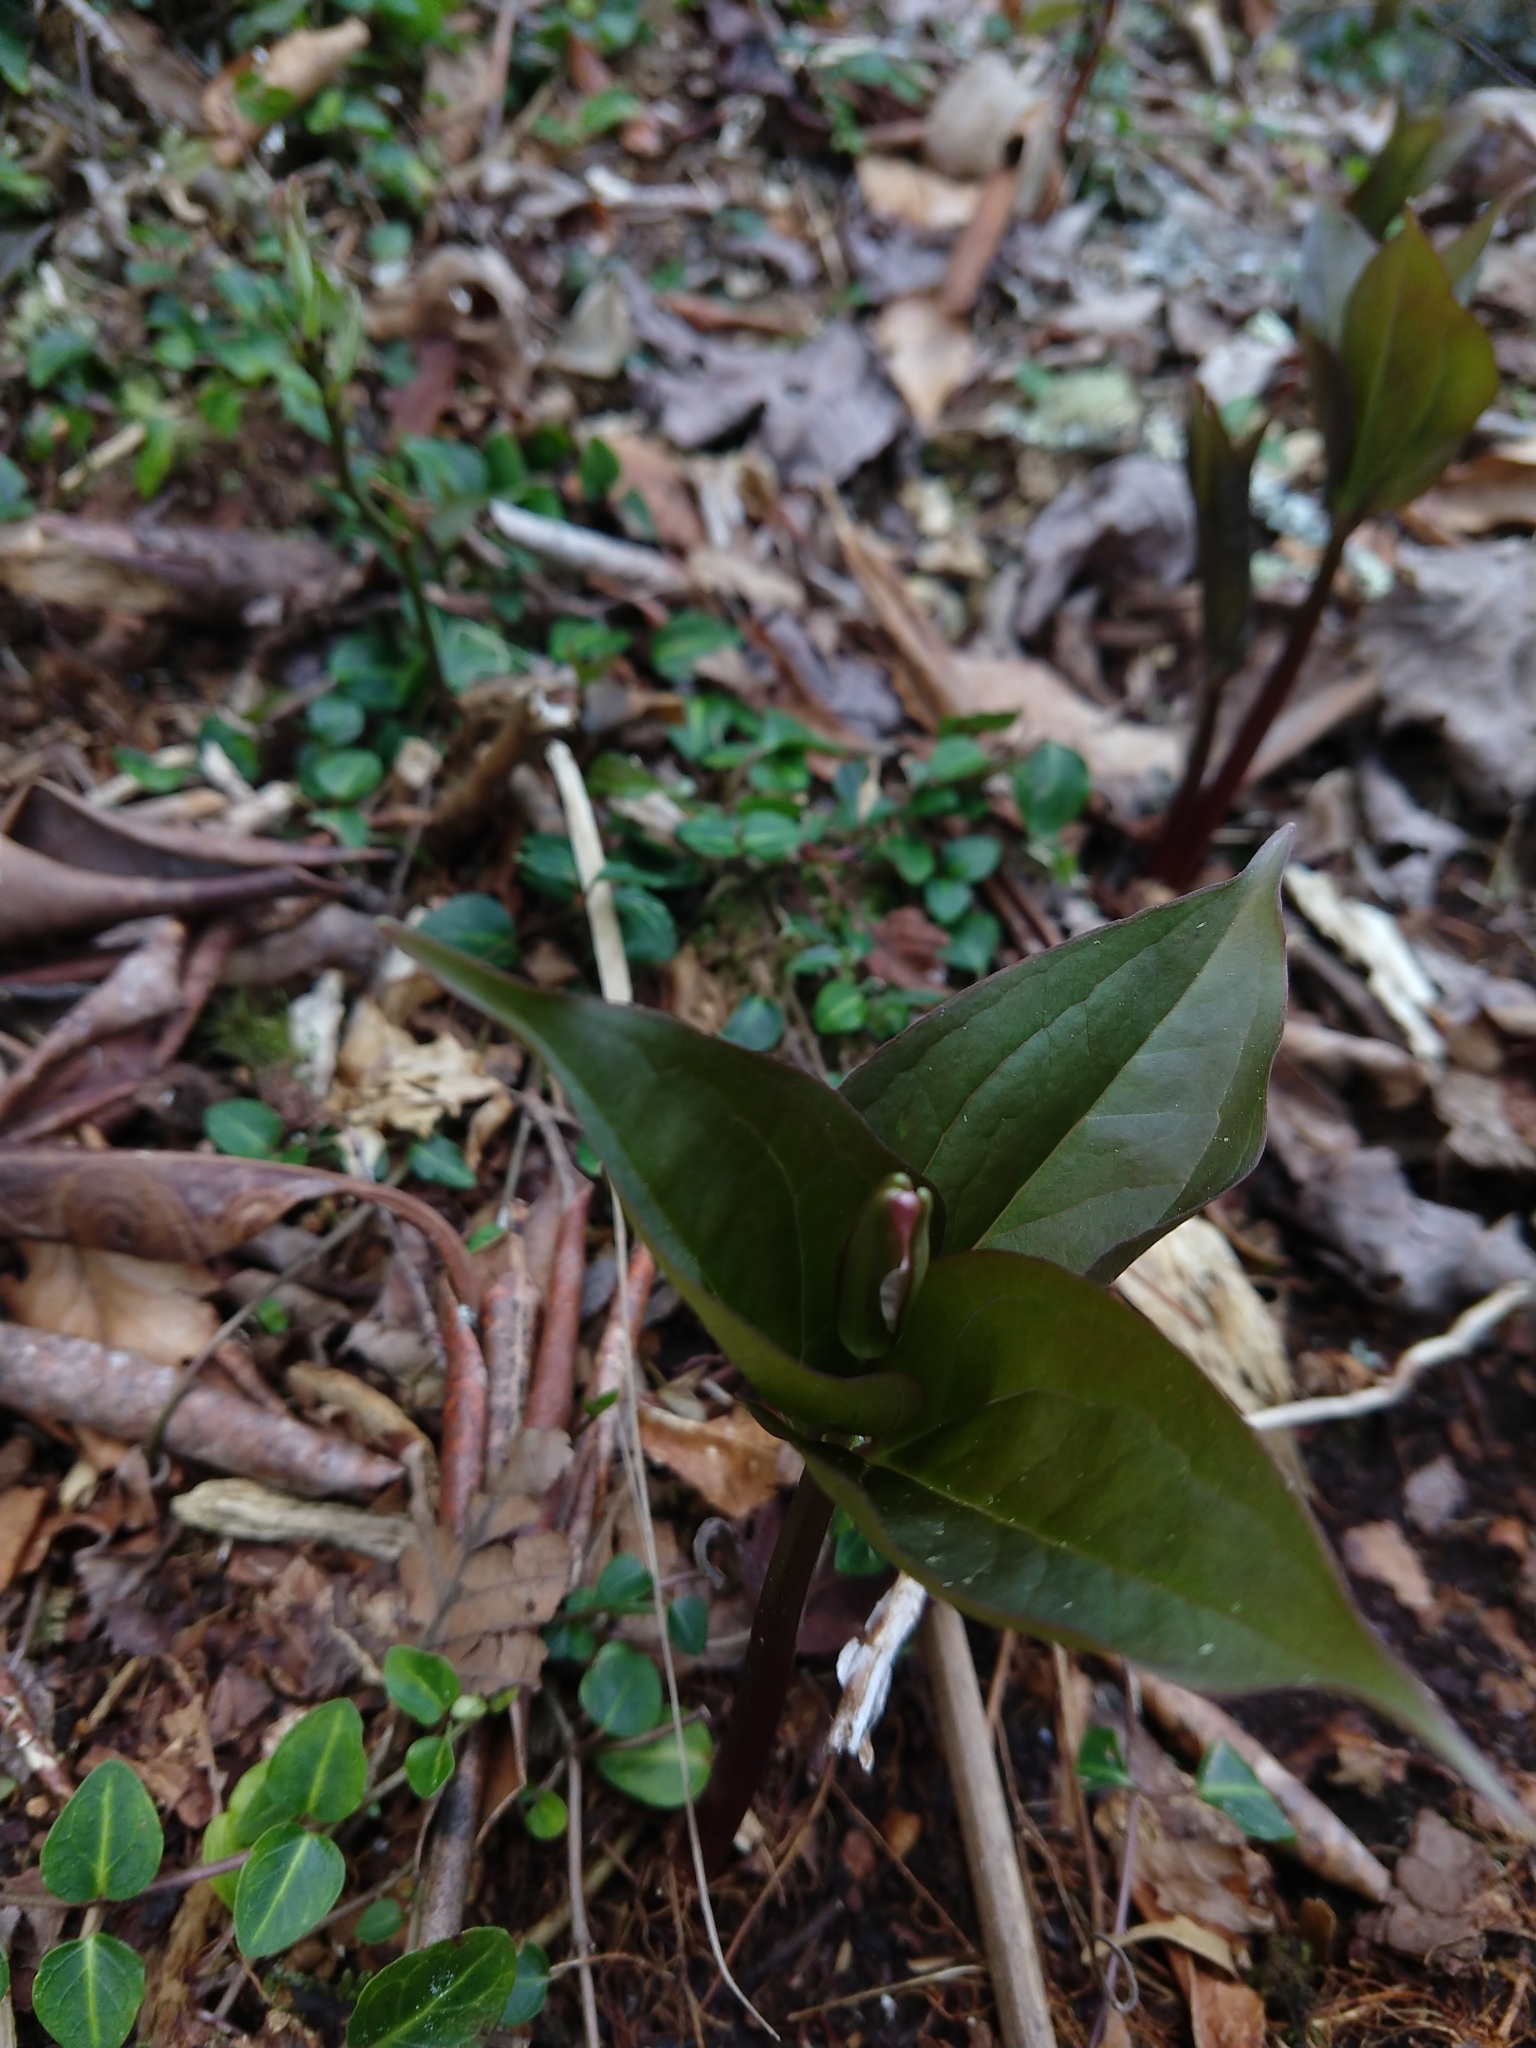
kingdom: Plantae
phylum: Tracheophyta
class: Liliopsida
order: Liliales
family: Melanthiaceae
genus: Trillium
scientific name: Trillium undulatum
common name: Paint trillium
